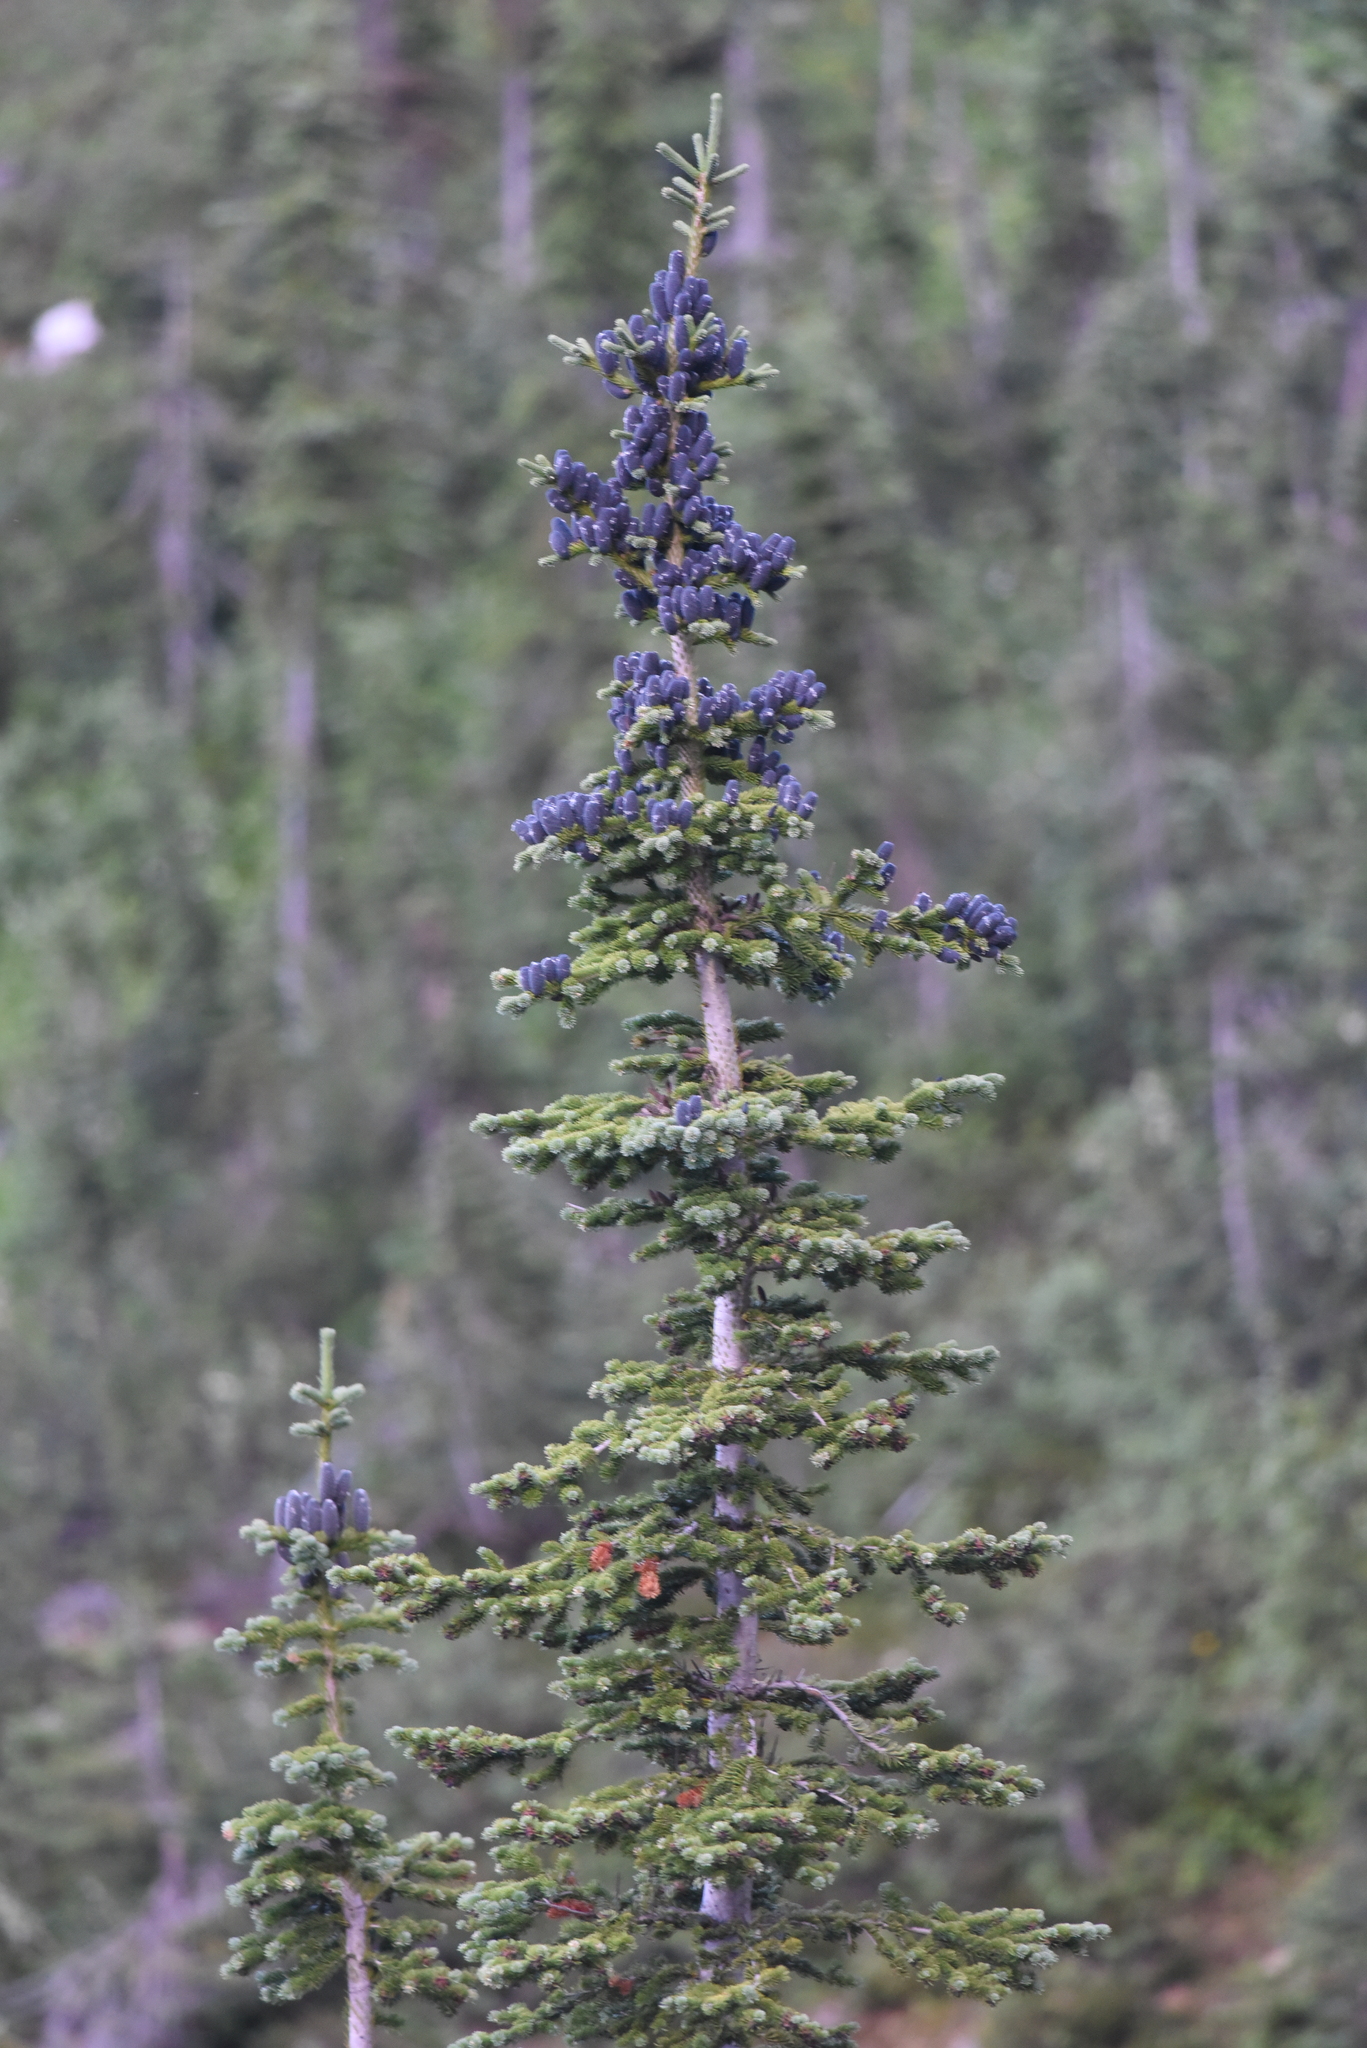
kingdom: Plantae
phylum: Tracheophyta
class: Pinopsida
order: Pinales
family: Pinaceae
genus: Abies
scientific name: Abies lasiocarpa
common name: Subalpine fir
